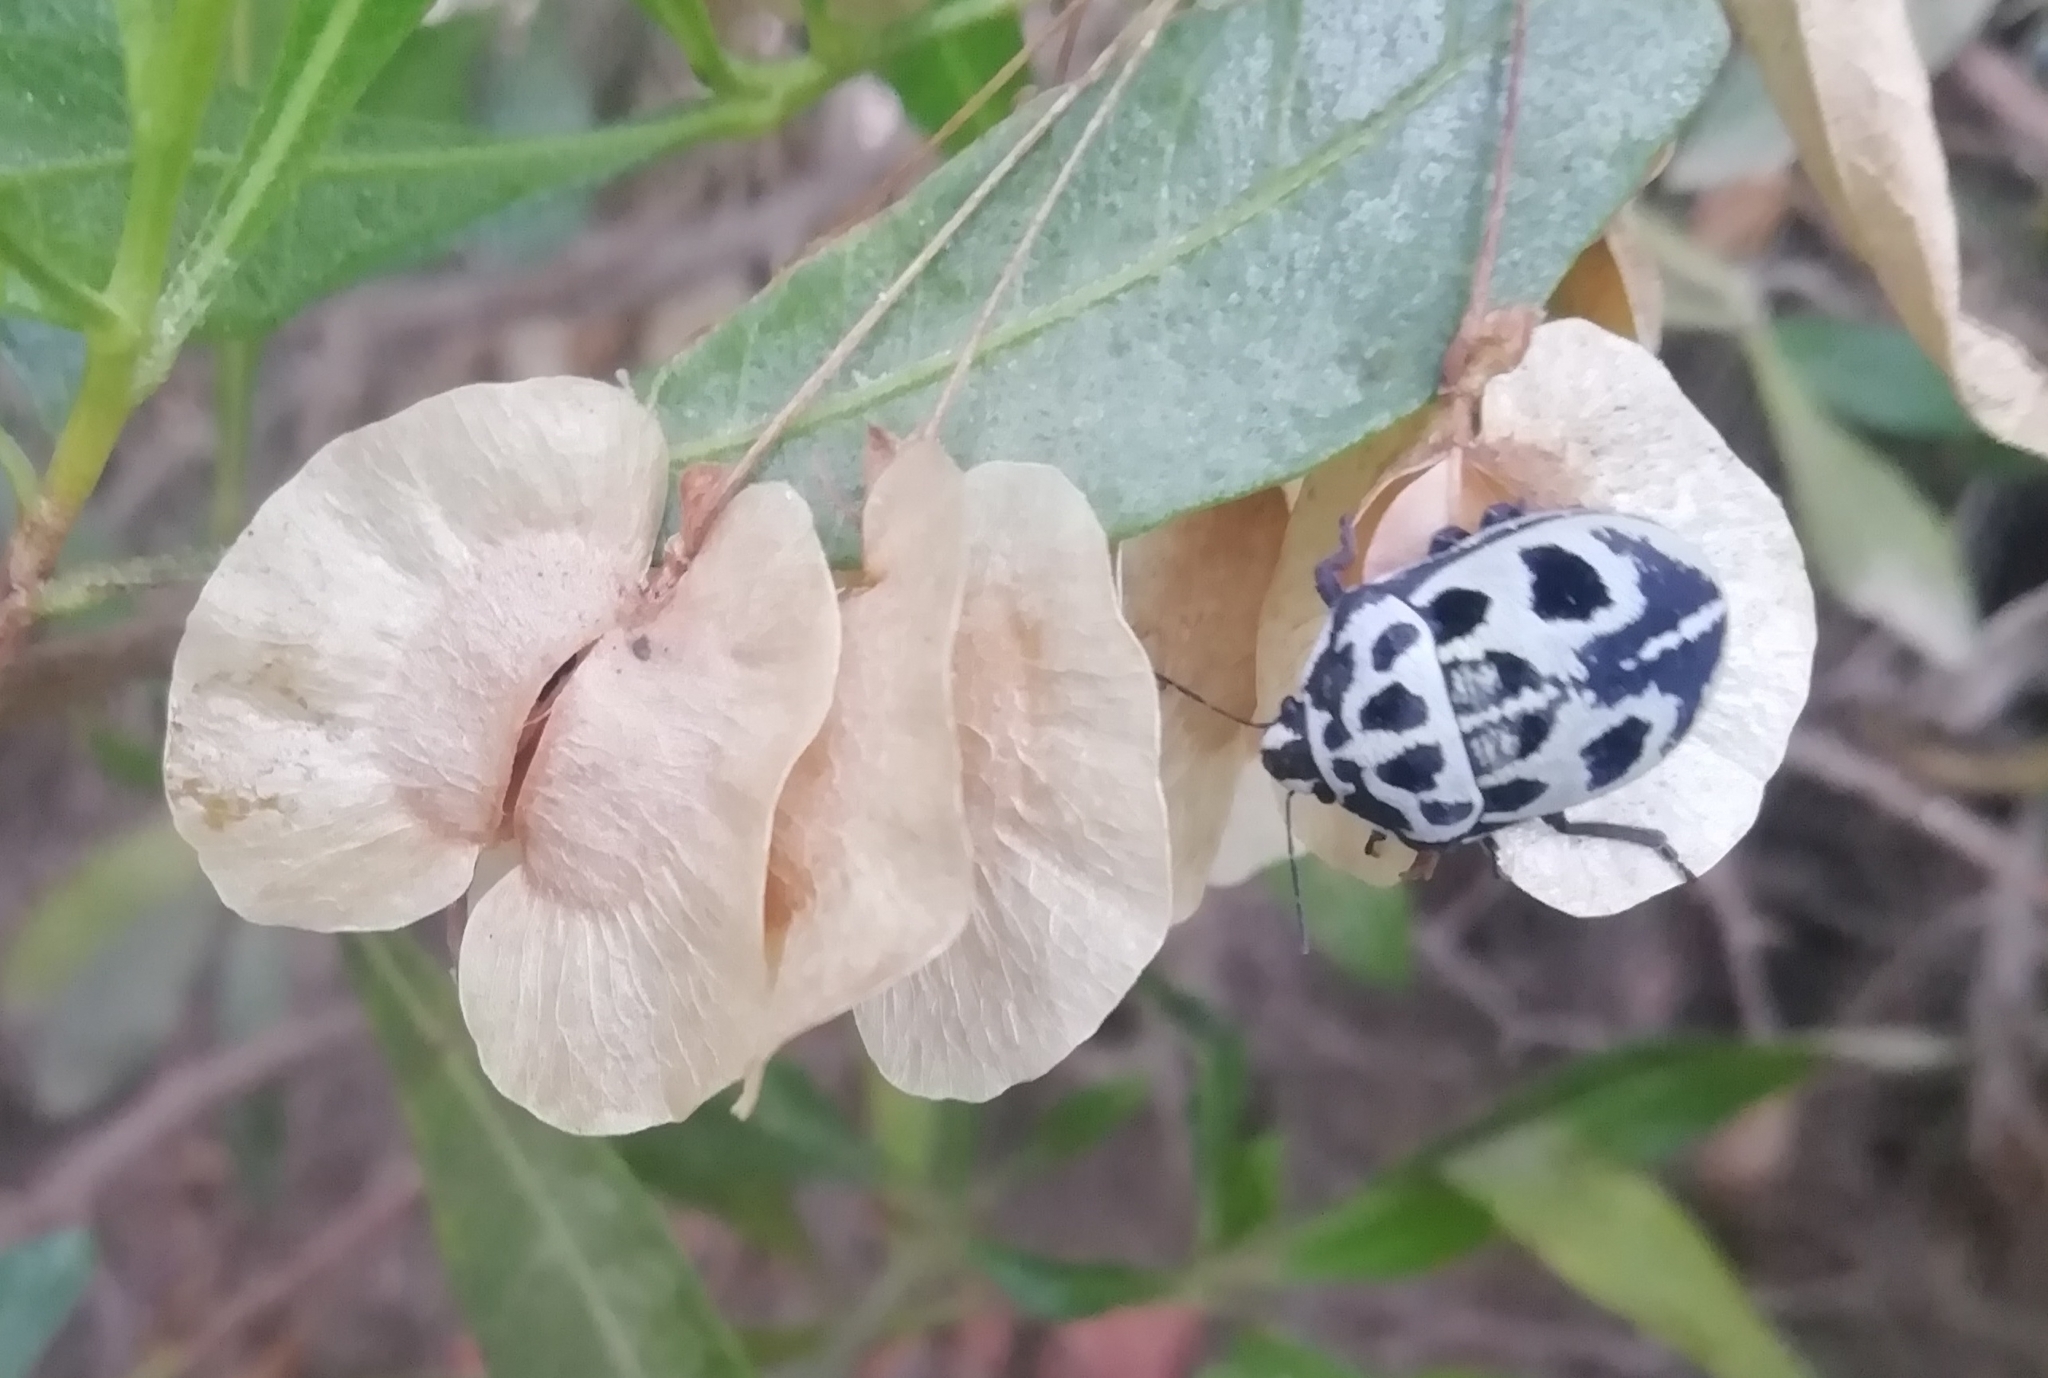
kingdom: Animalia
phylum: Arthropoda
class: Insecta
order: Hemiptera
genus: Deroplax
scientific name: Deroplax silphoides
